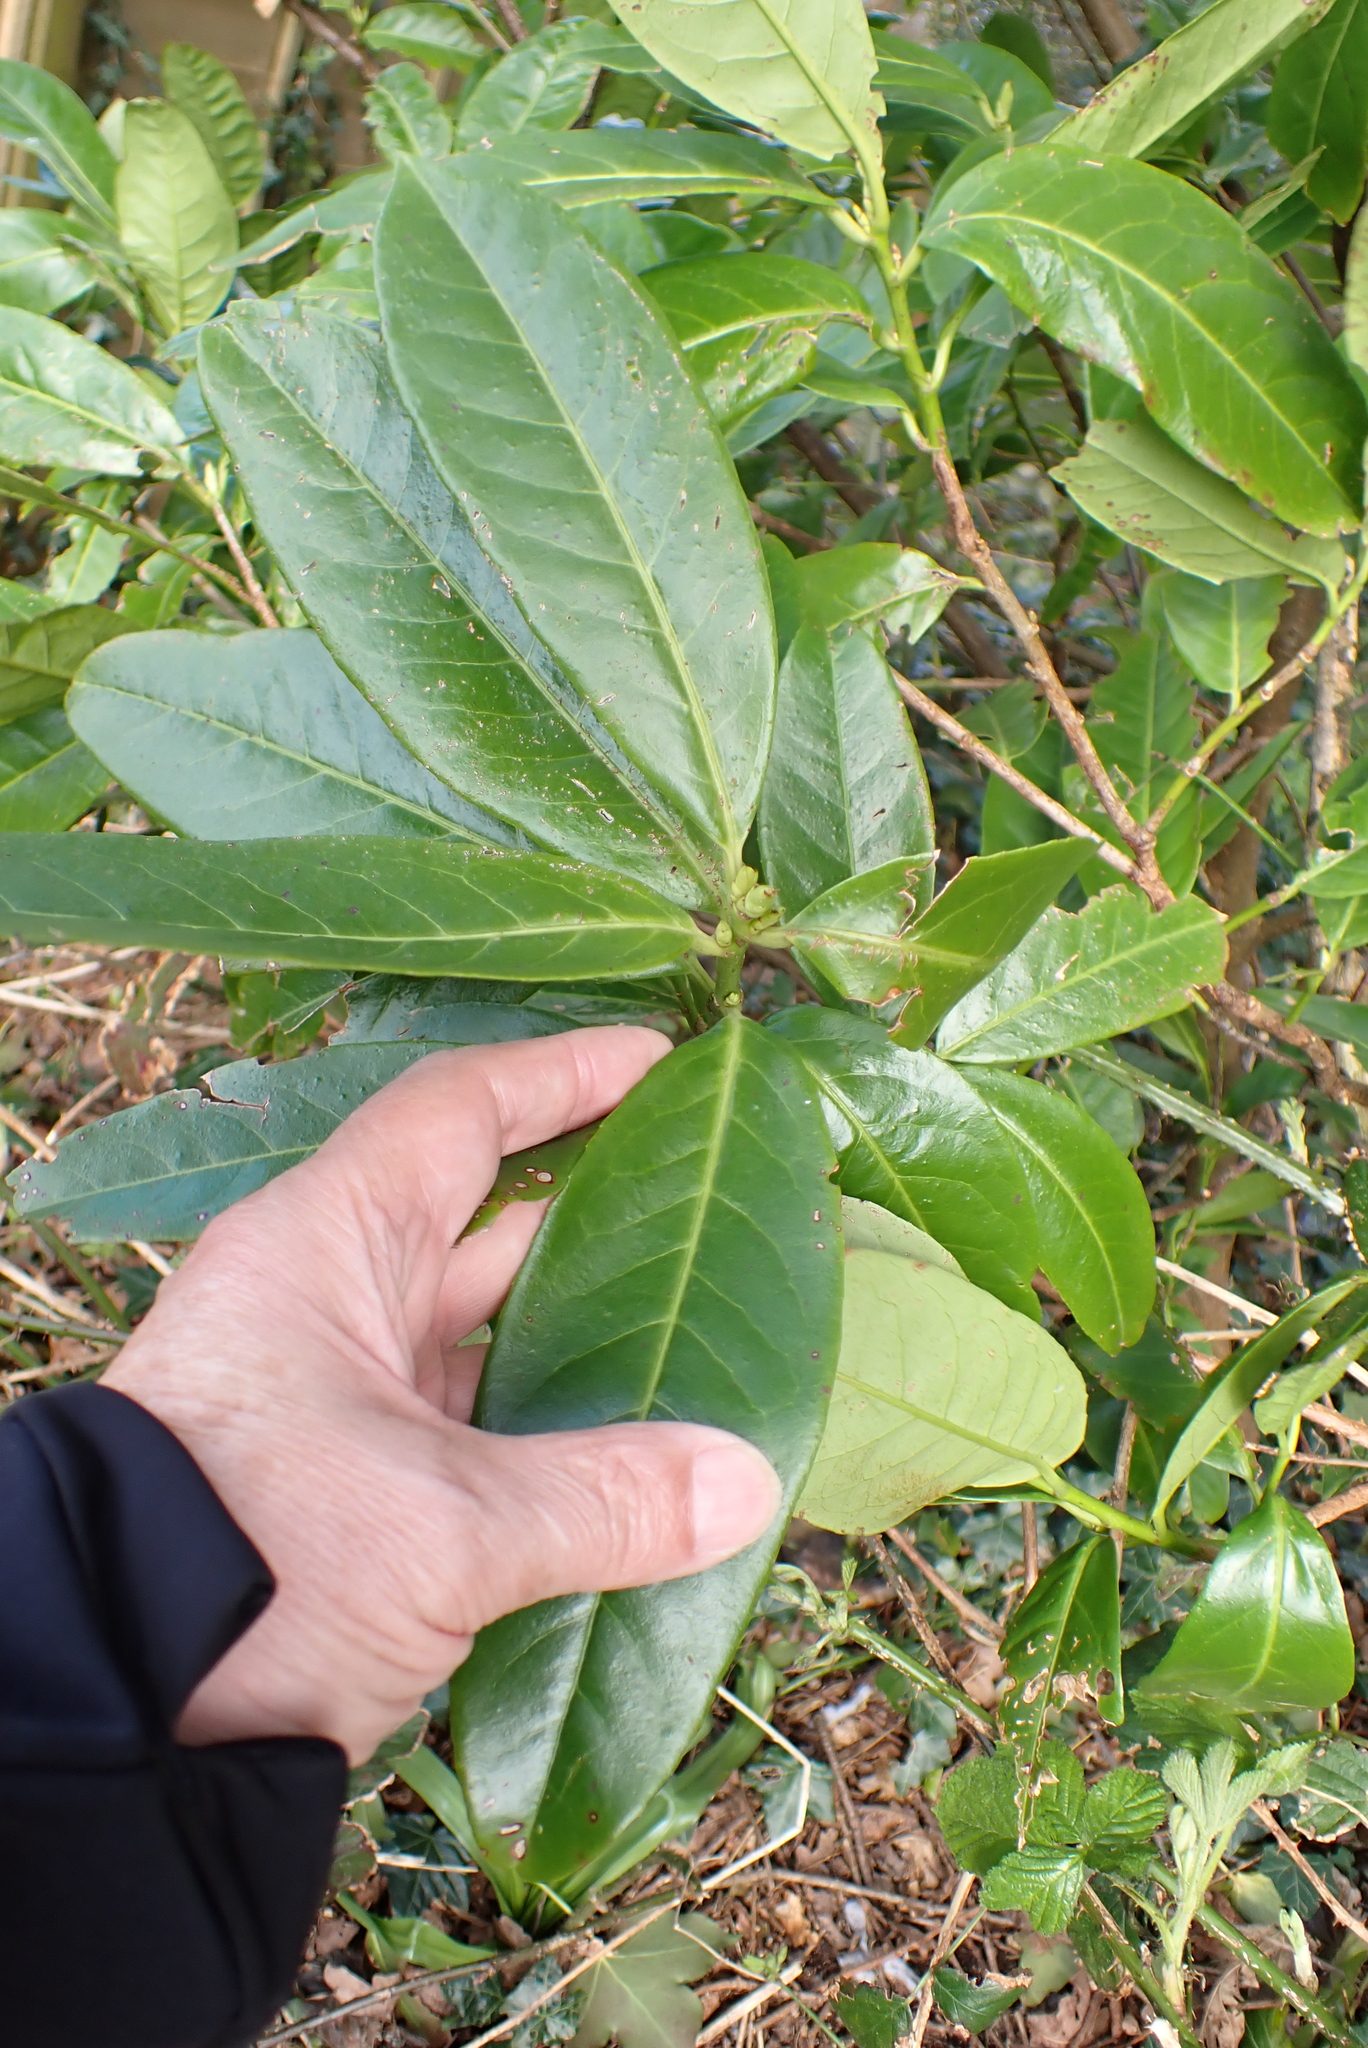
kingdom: Plantae
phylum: Tracheophyta
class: Magnoliopsida
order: Rosales
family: Rosaceae
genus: Prunus
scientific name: Prunus laurocerasus
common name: Cherry laurel
